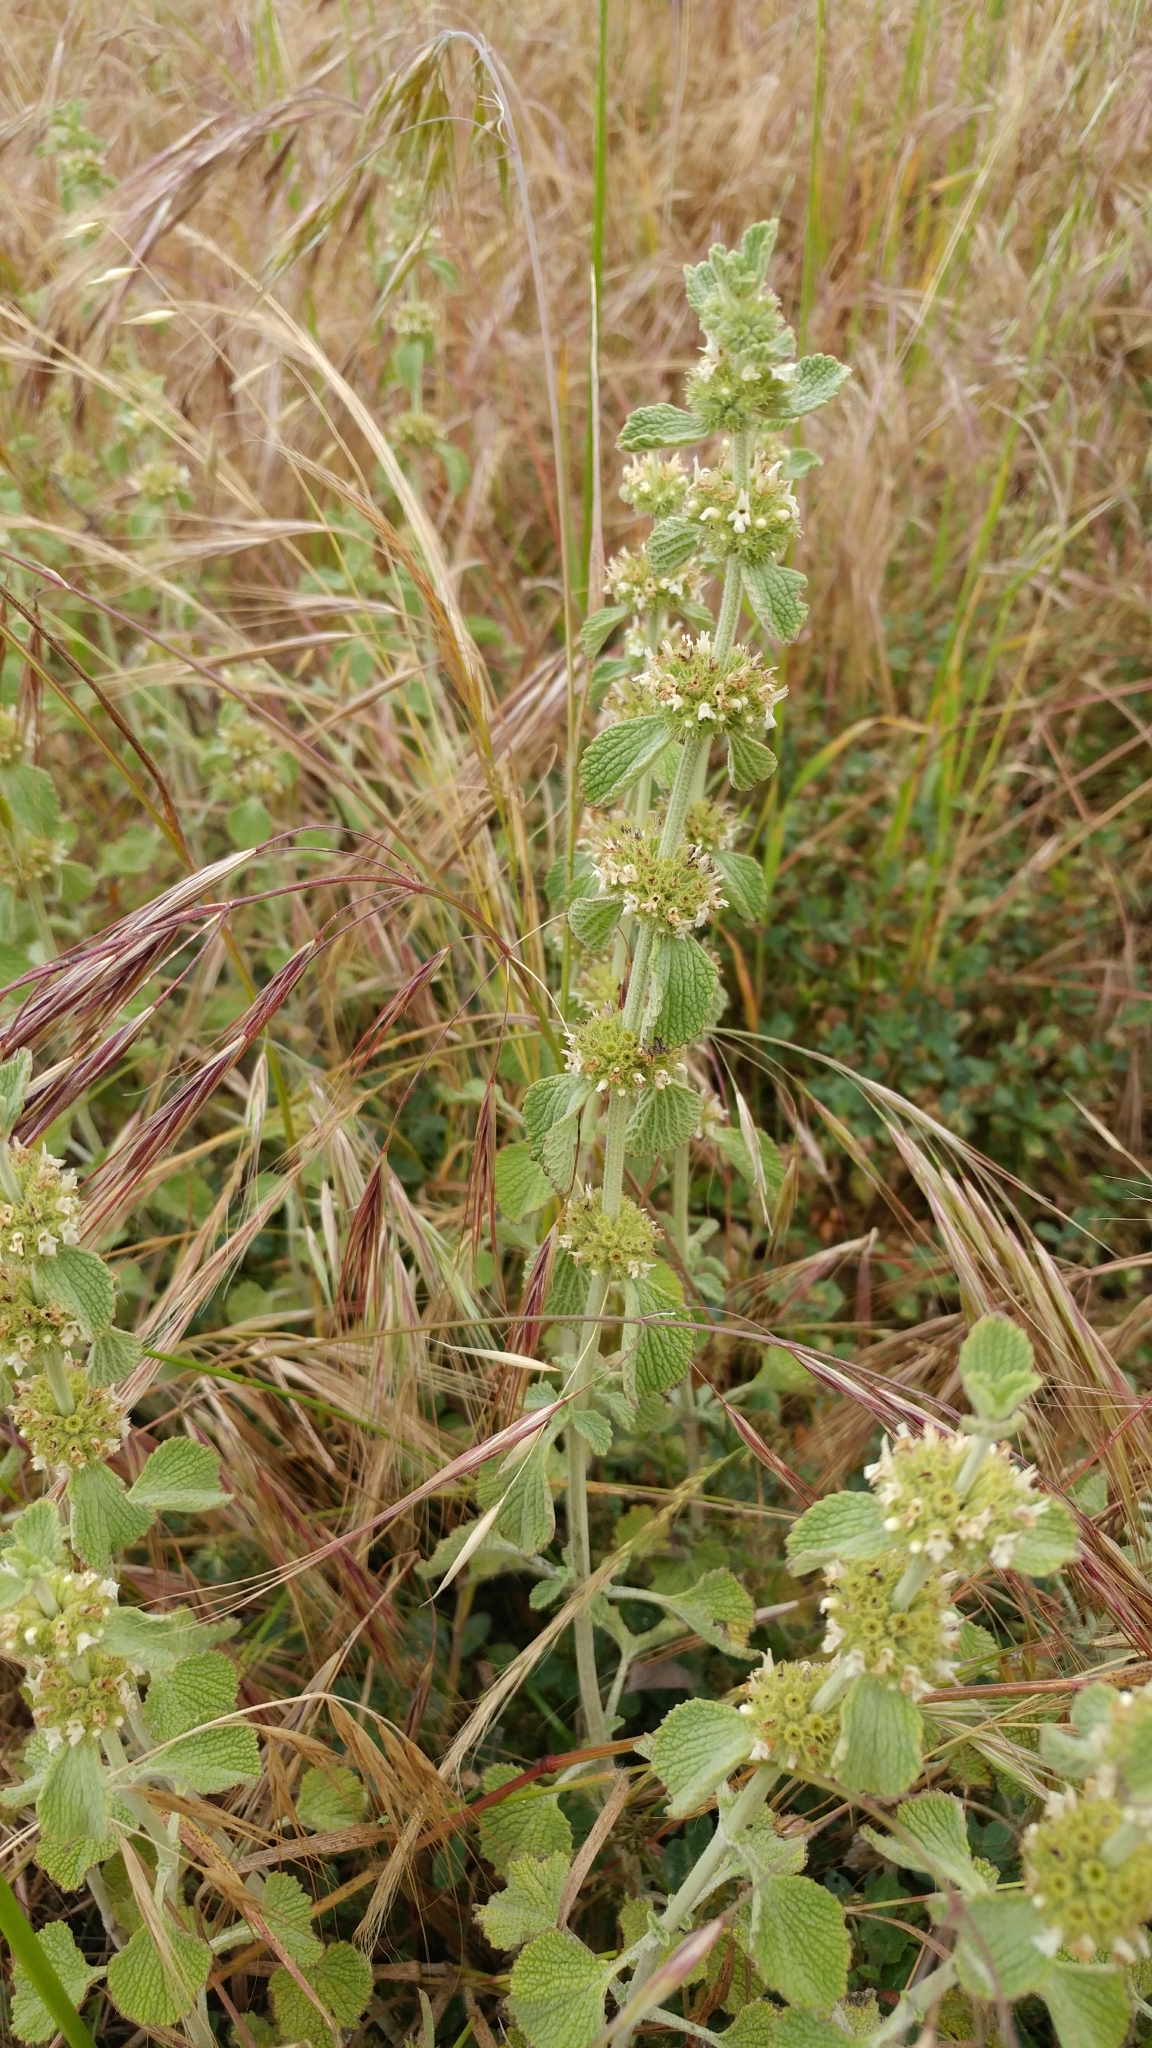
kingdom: Plantae
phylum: Tracheophyta
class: Magnoliopsida
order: Lamiales
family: Lamiaceae
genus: Marrubium
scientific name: Marrubium vulgare
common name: Horehound
